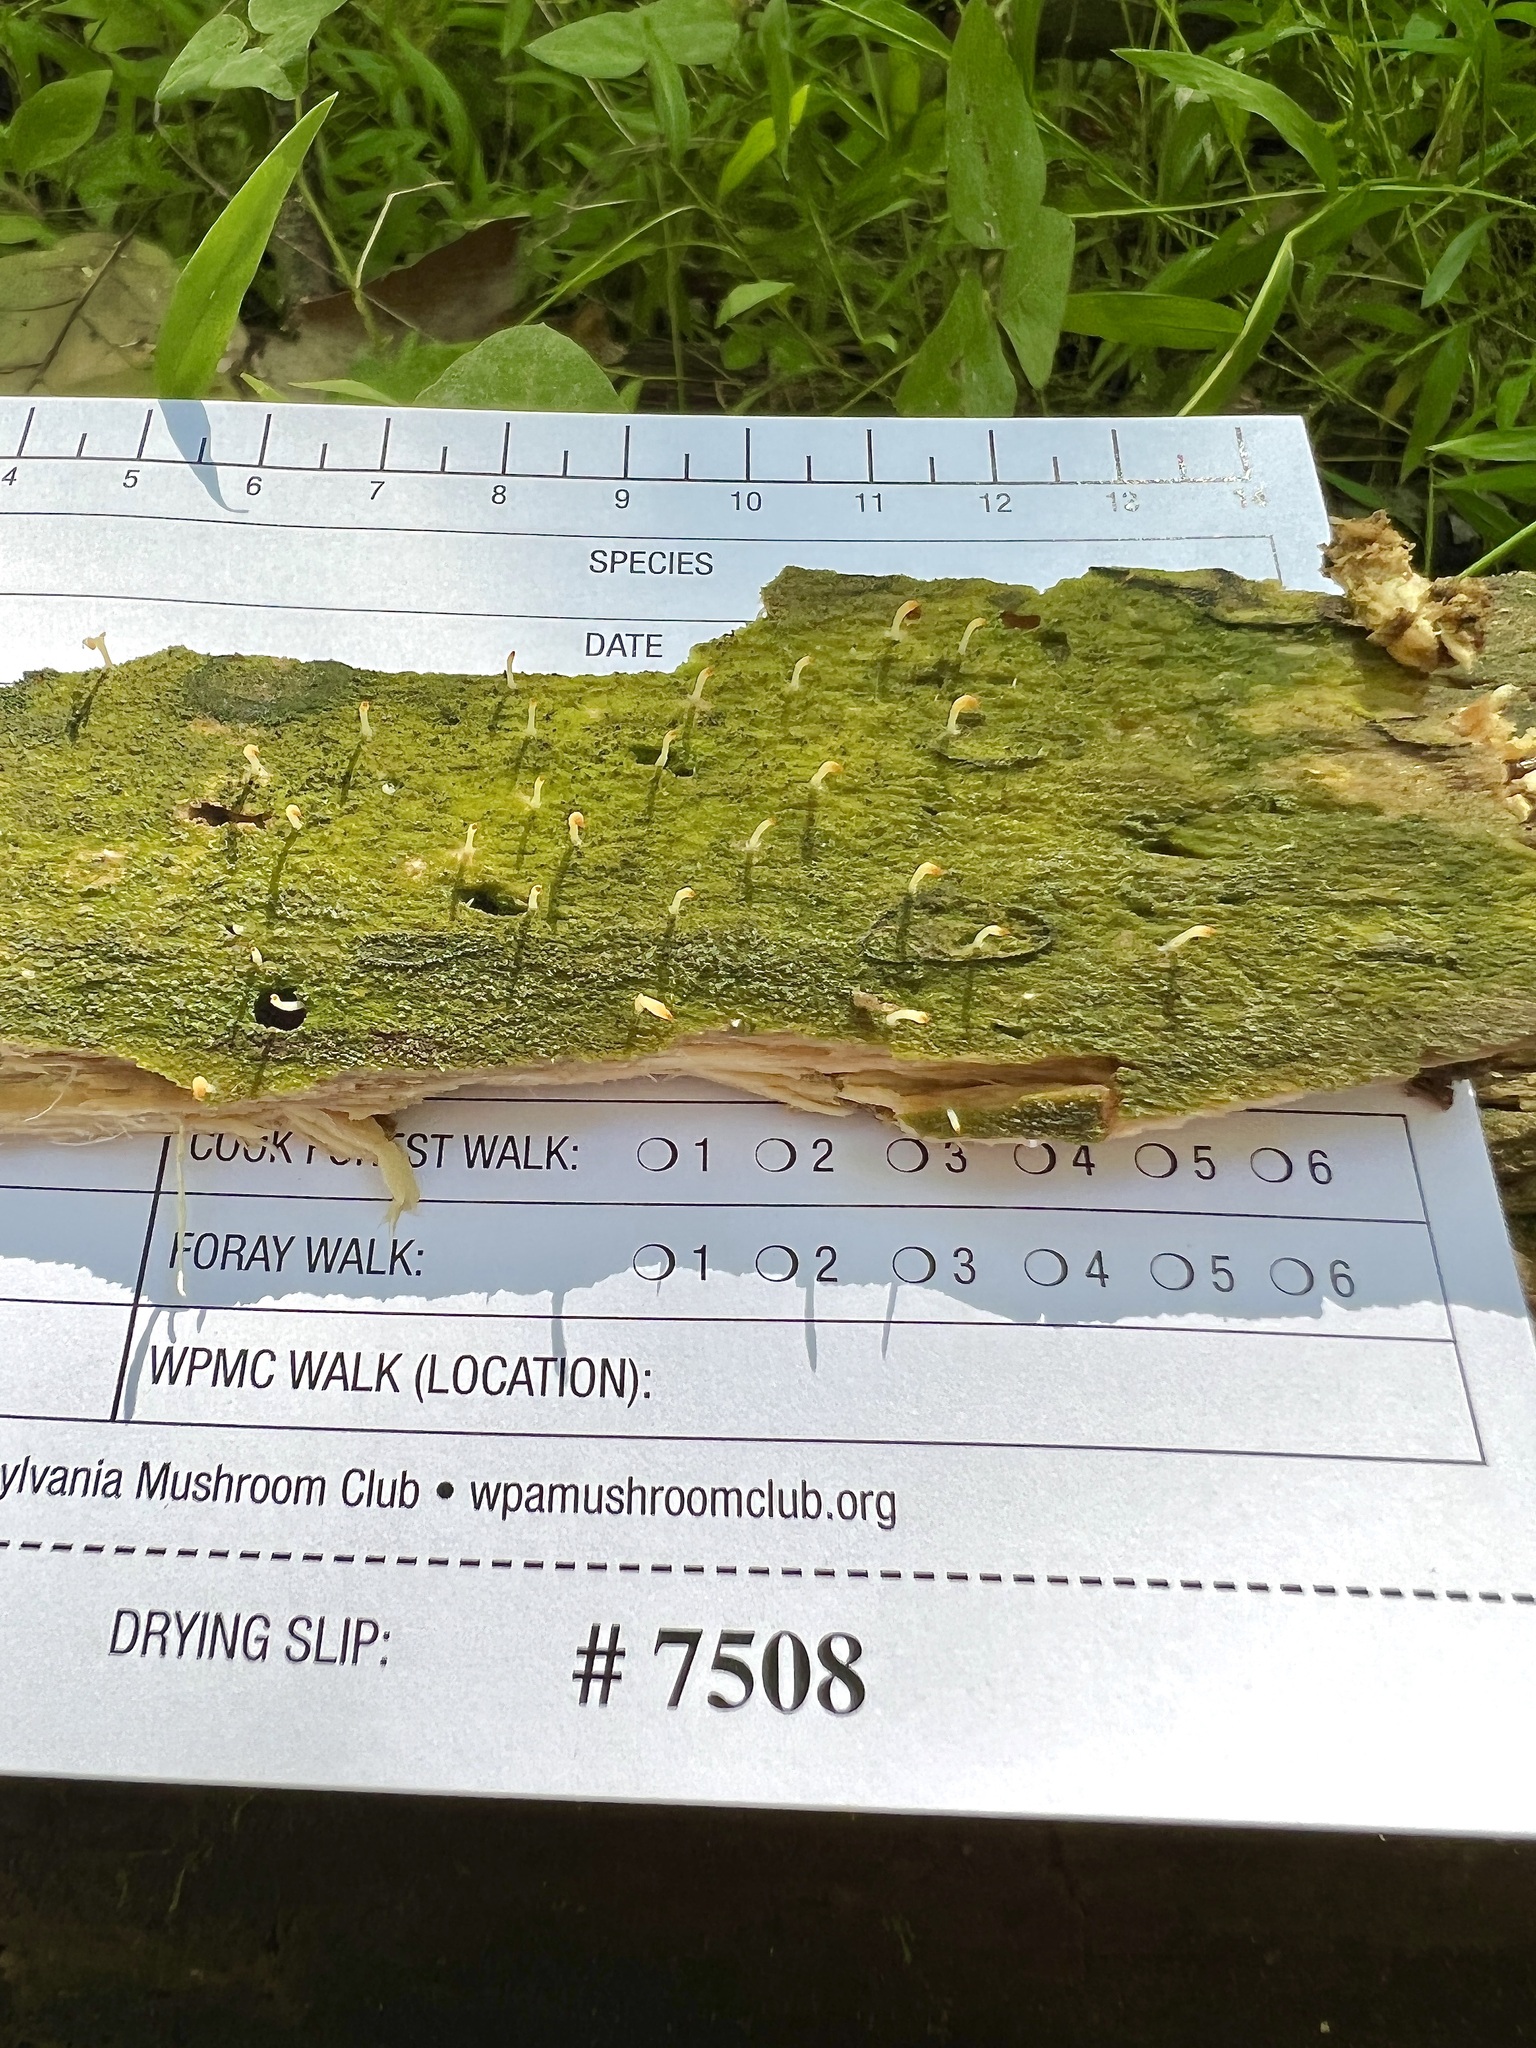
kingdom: Fungi
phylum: Basidiomycota
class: Agaricomycetes
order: Cantharellales
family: Hydnaceae
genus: Multiclavula
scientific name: Multiclavula mucida
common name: White green-algae coral
